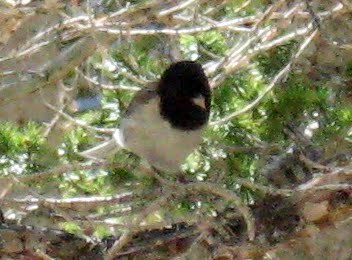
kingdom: Animalia
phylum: Chordata
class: Aves
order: Passeriformes
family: Passerellidae
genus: Junco
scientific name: Junco hyemalis
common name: Dark-eyed junco
